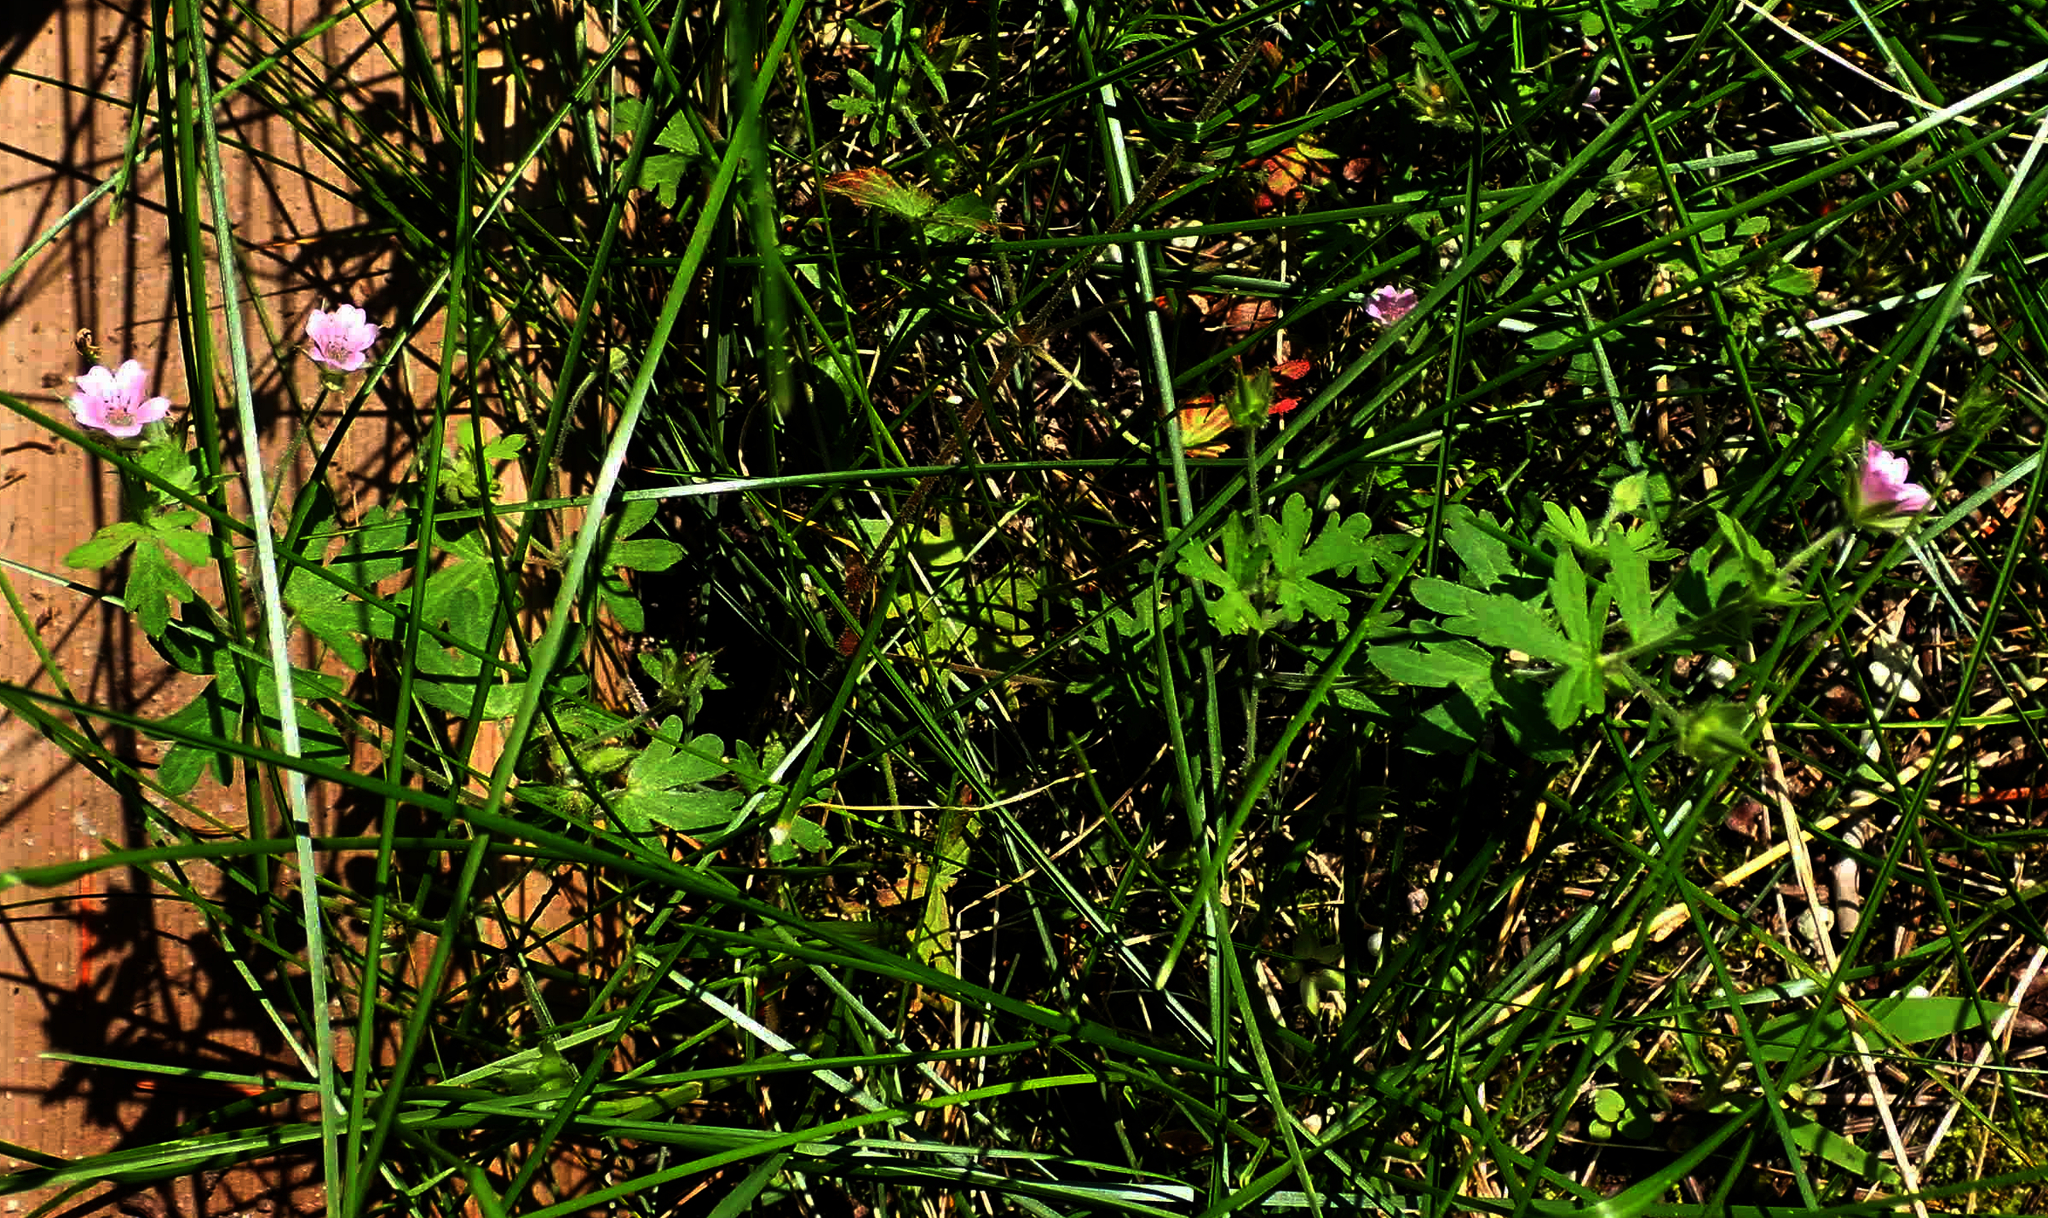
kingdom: Plantae
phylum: Tracheophyta
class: Magnoliopsida
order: Geraniales
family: Geraniaceae
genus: Geranium
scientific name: Geranium bicknellii
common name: Bicknell's cranesbill
